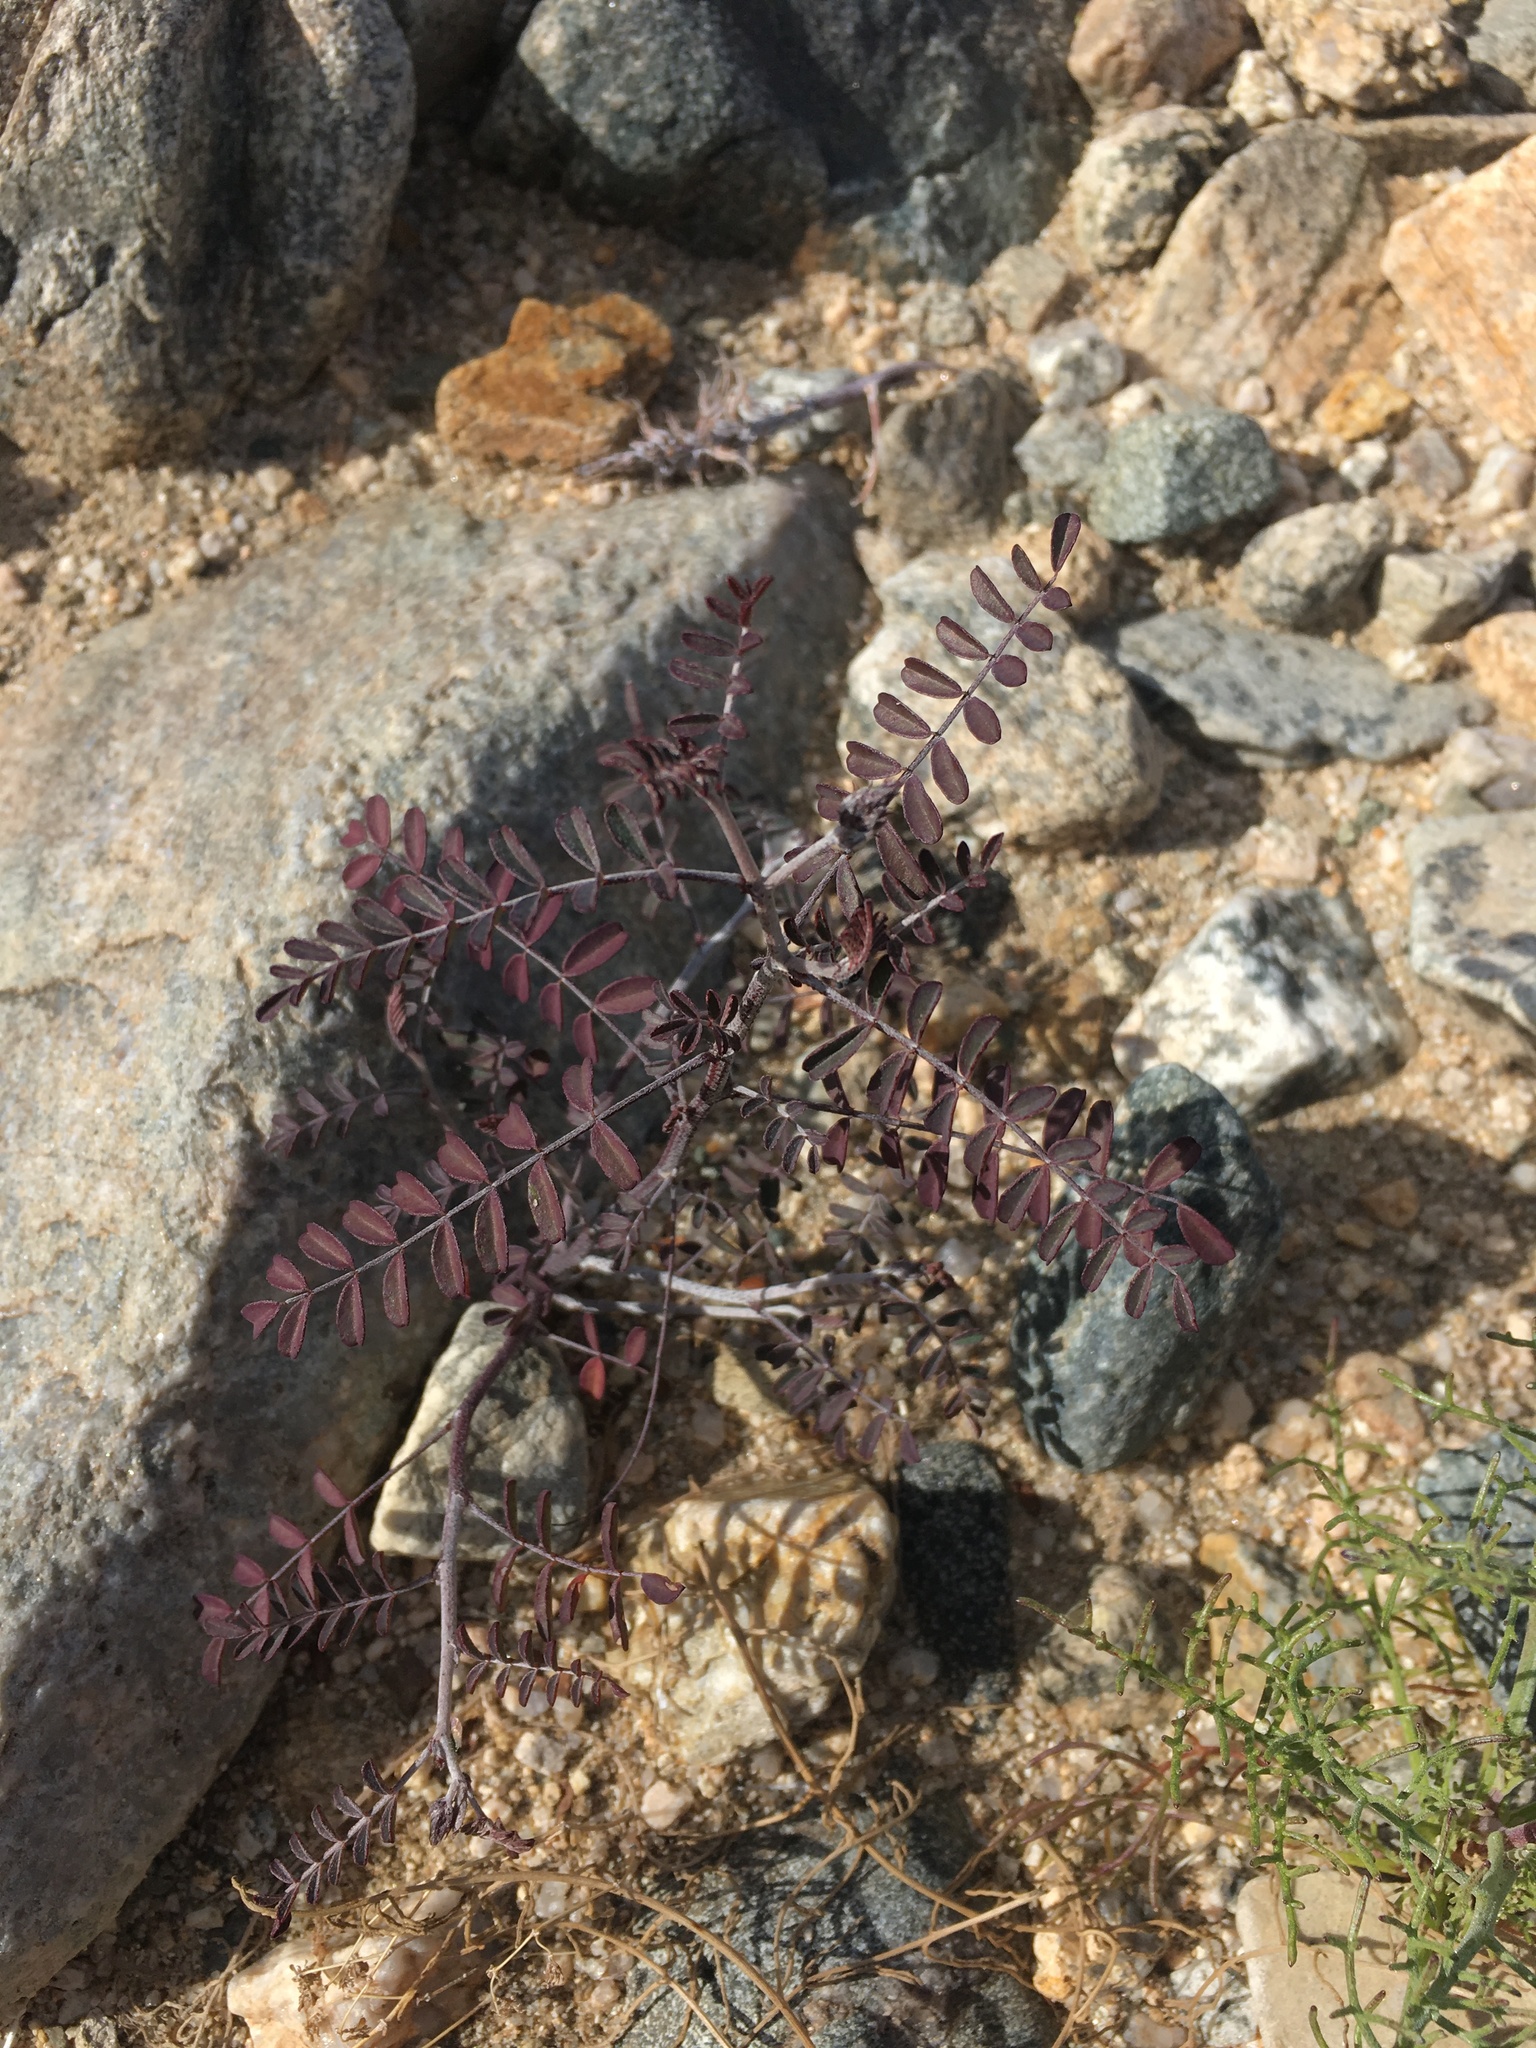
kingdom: Plantae
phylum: Tracheophyta
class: Magnoliopsida
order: Fabales
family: Fabaceae
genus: Marina
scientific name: Marina parryi
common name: Parry's marina
